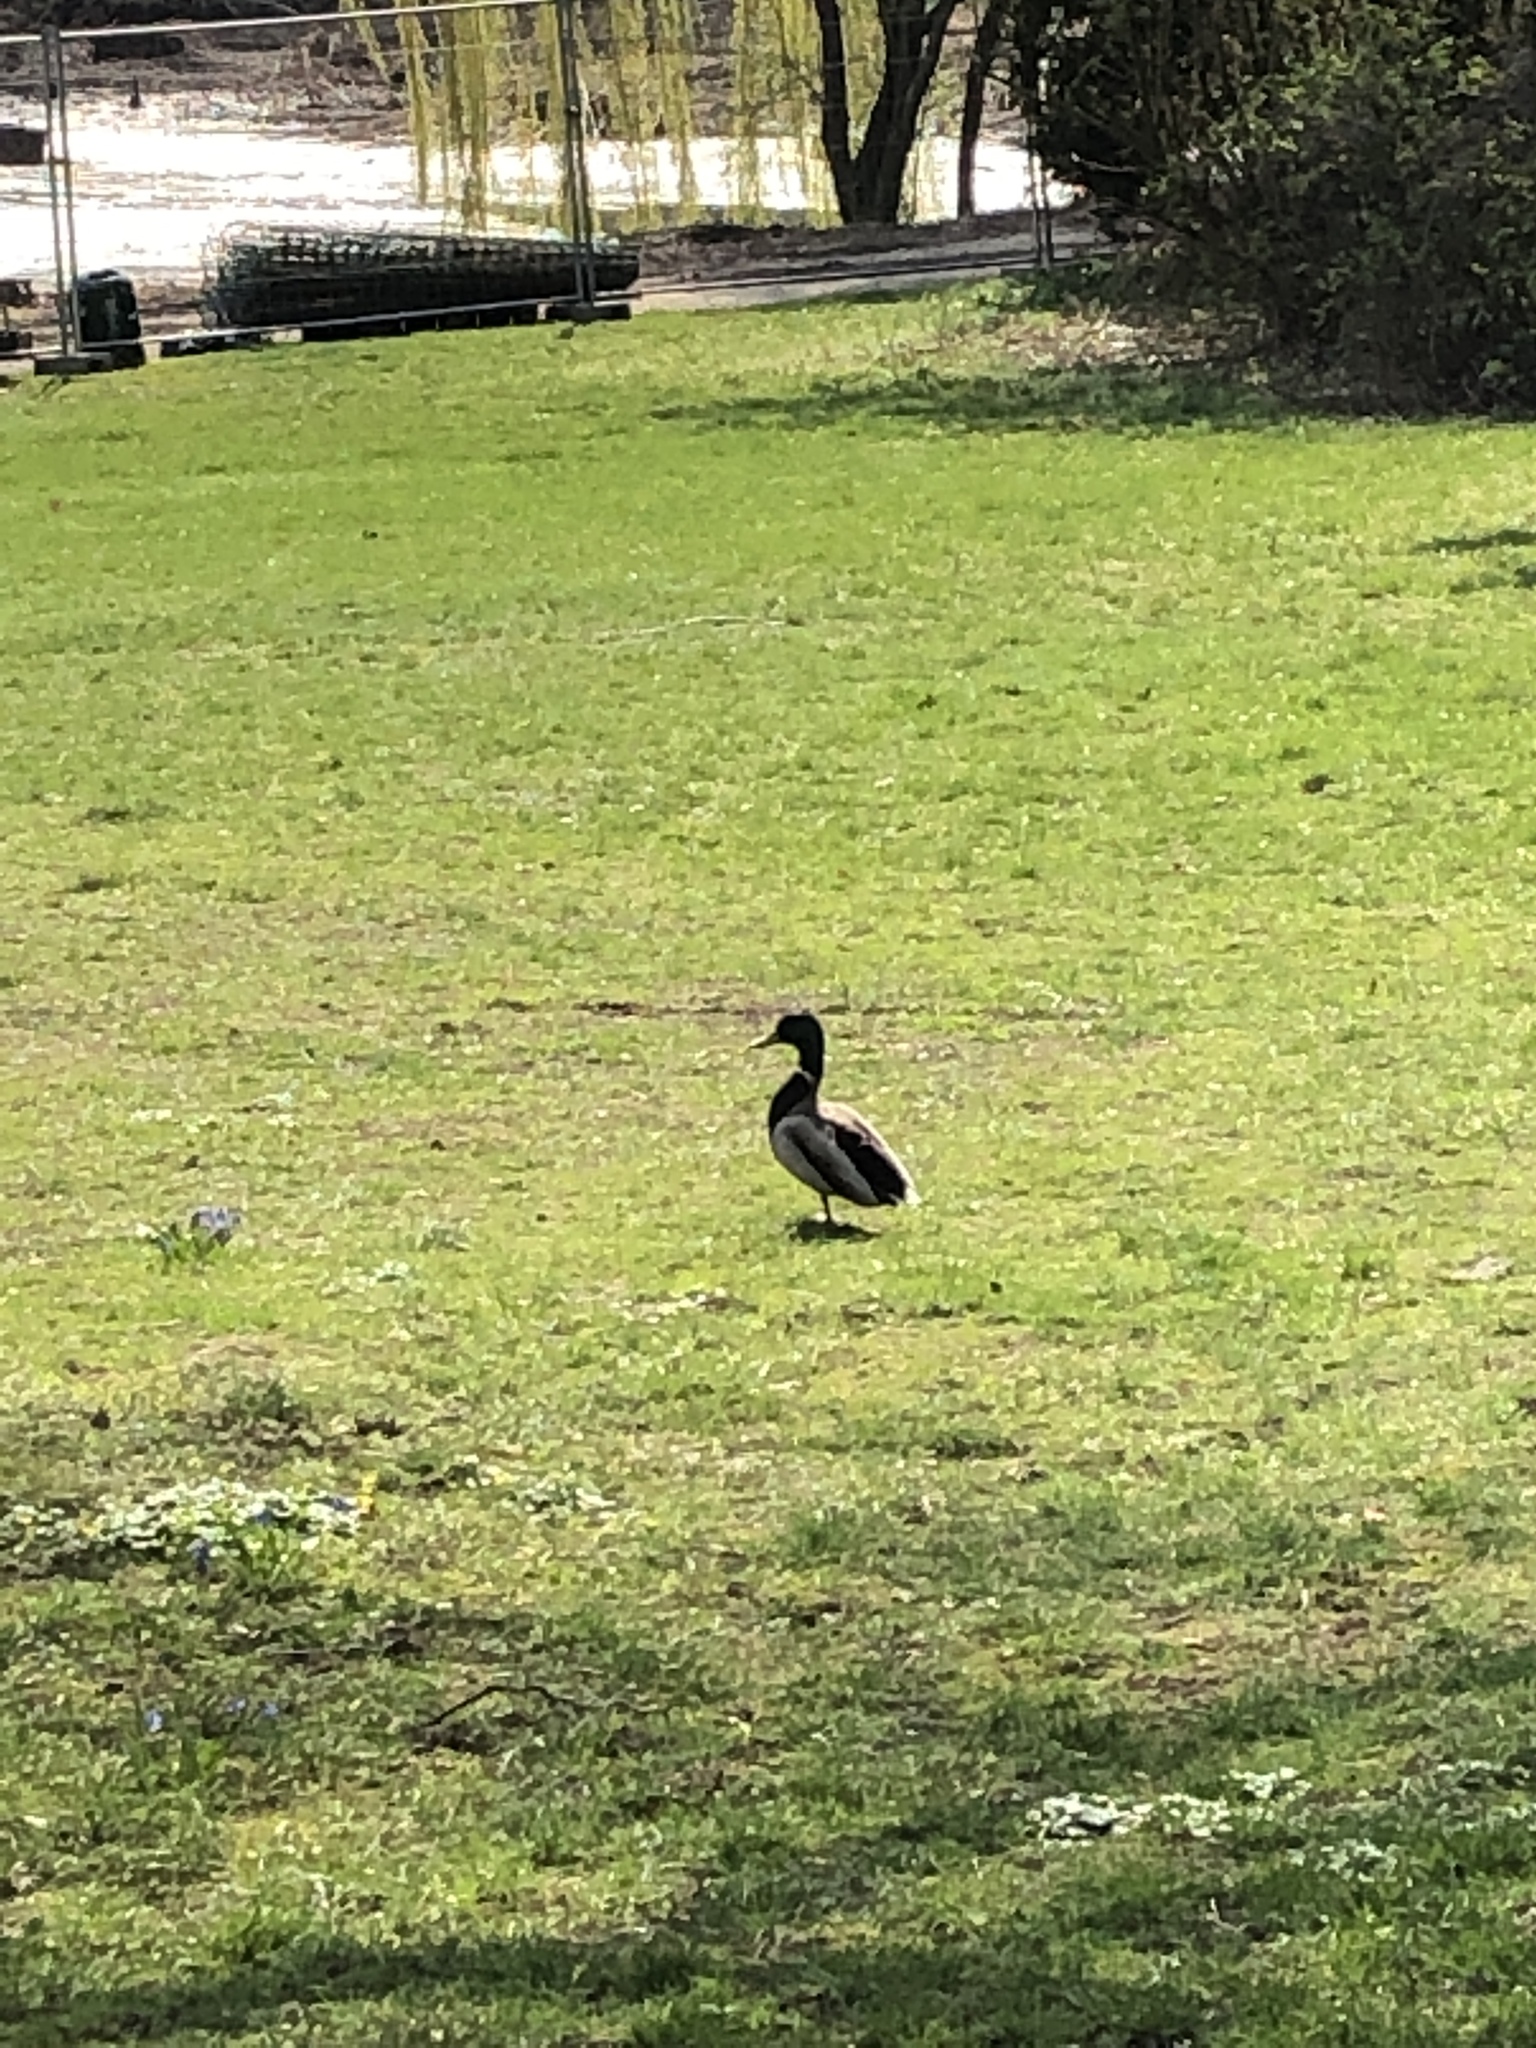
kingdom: Animalia
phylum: Chordata
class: Aves
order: Anseriformes
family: Anatidae
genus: Anas
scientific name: Anas platyrhynchos
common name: Mallard
